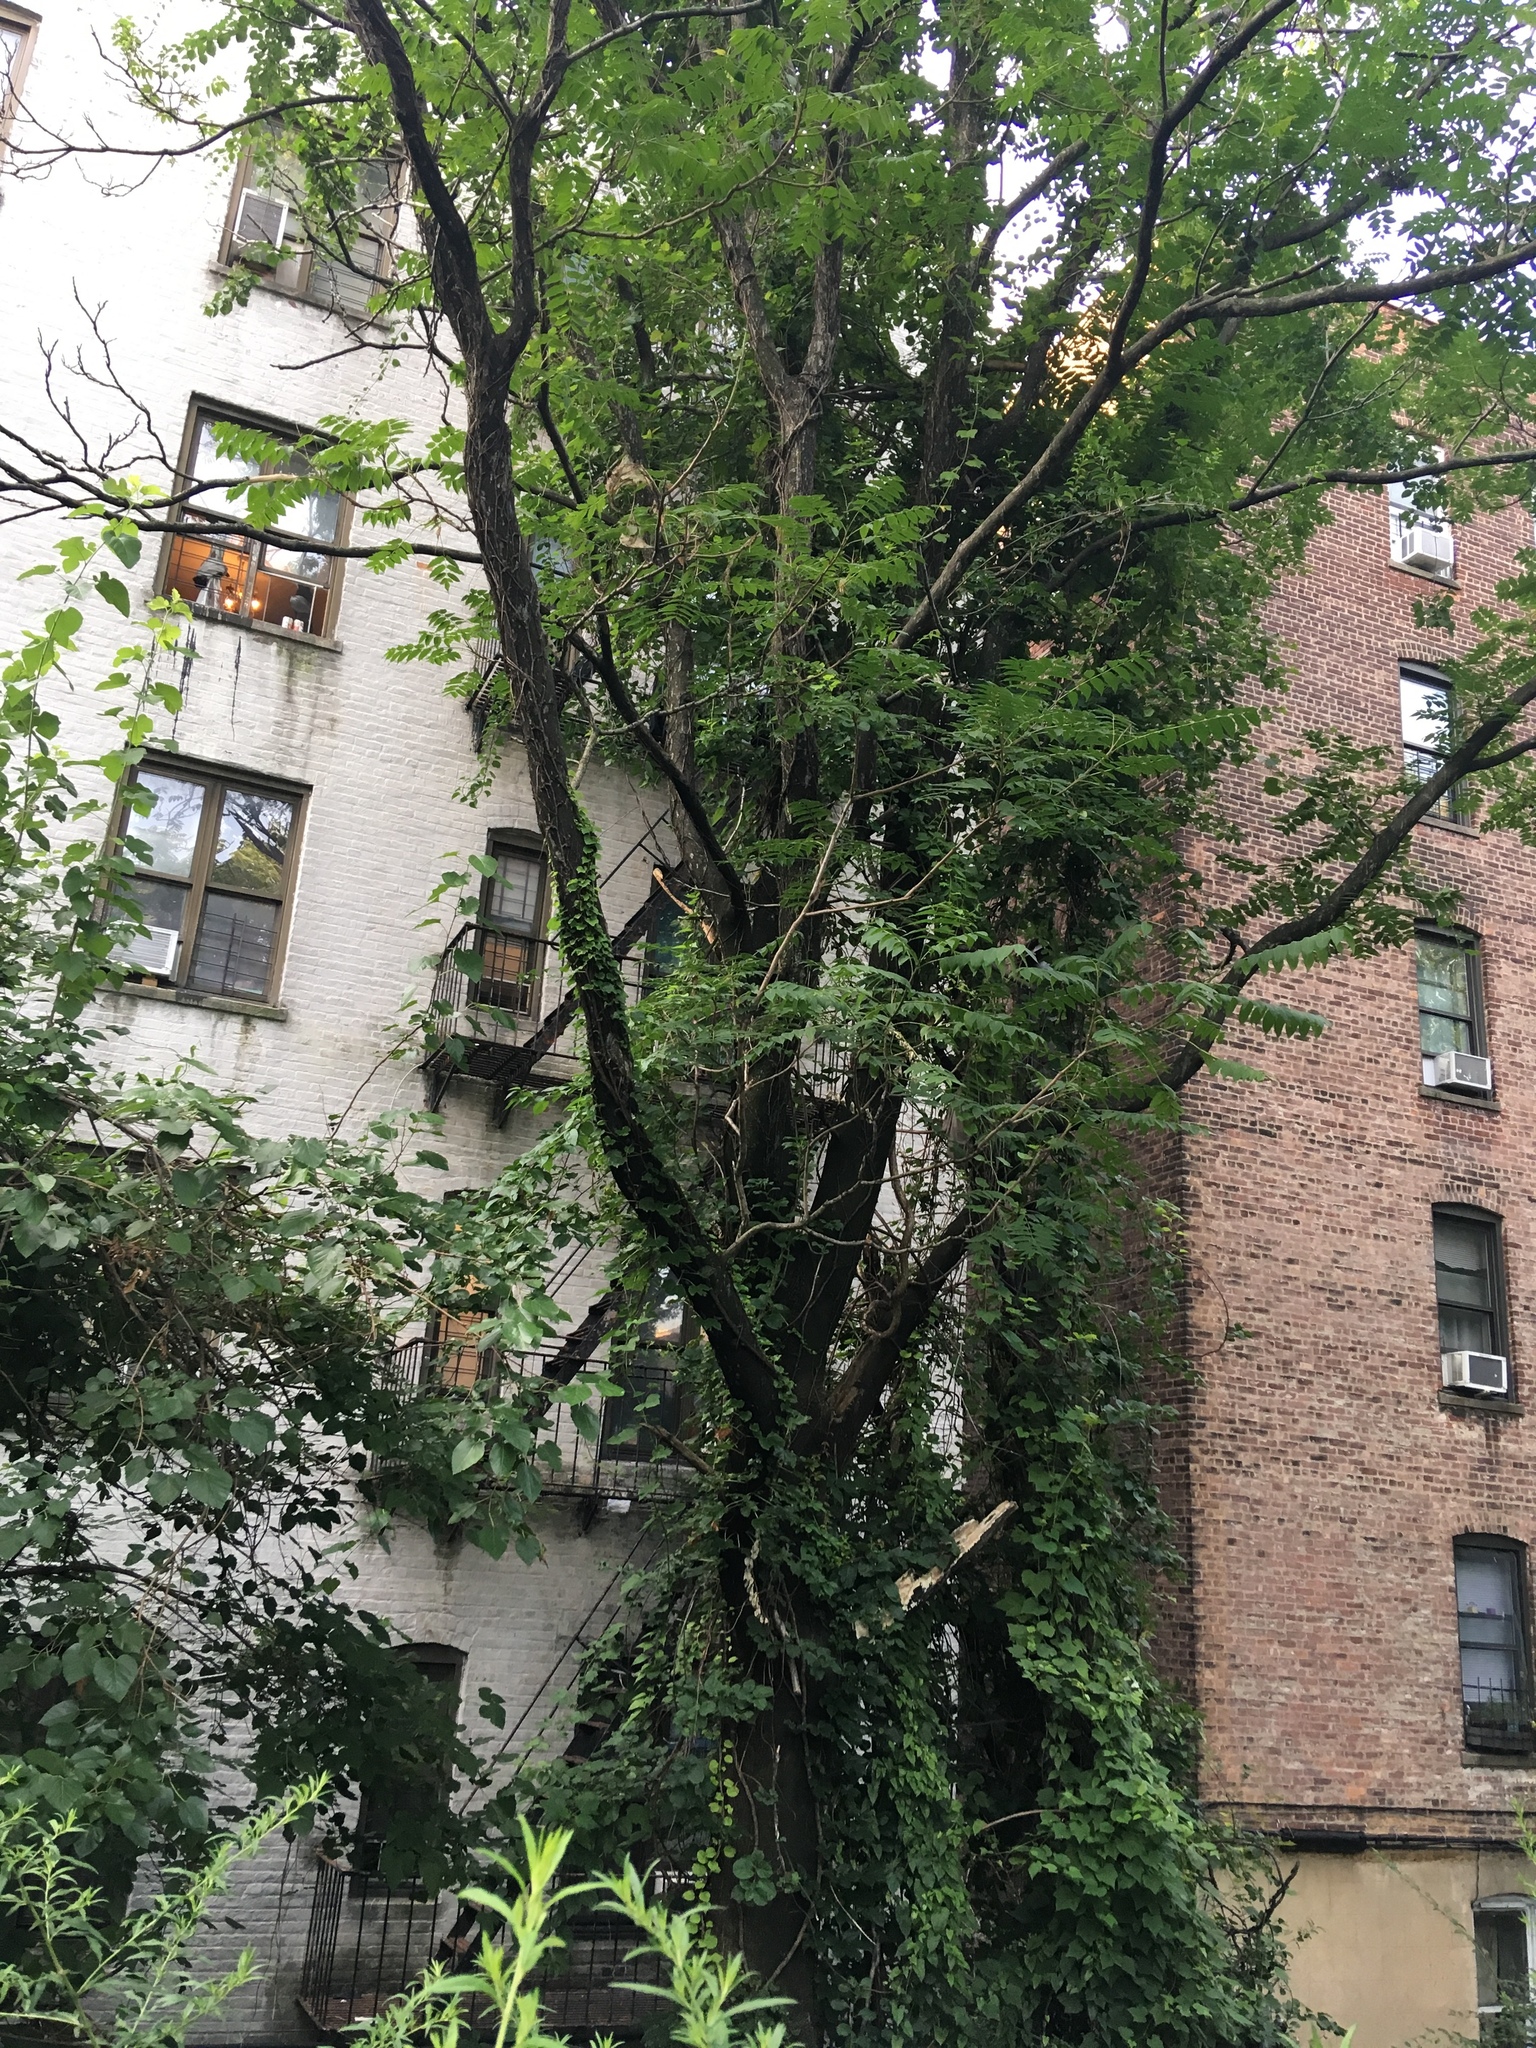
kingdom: Plantae
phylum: Tracheophyta
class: Magnoliopsida
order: Sapindales
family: Simaroubaceae
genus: Ailanthus
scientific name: Ailanthus altissima
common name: Tree-of-heaven
